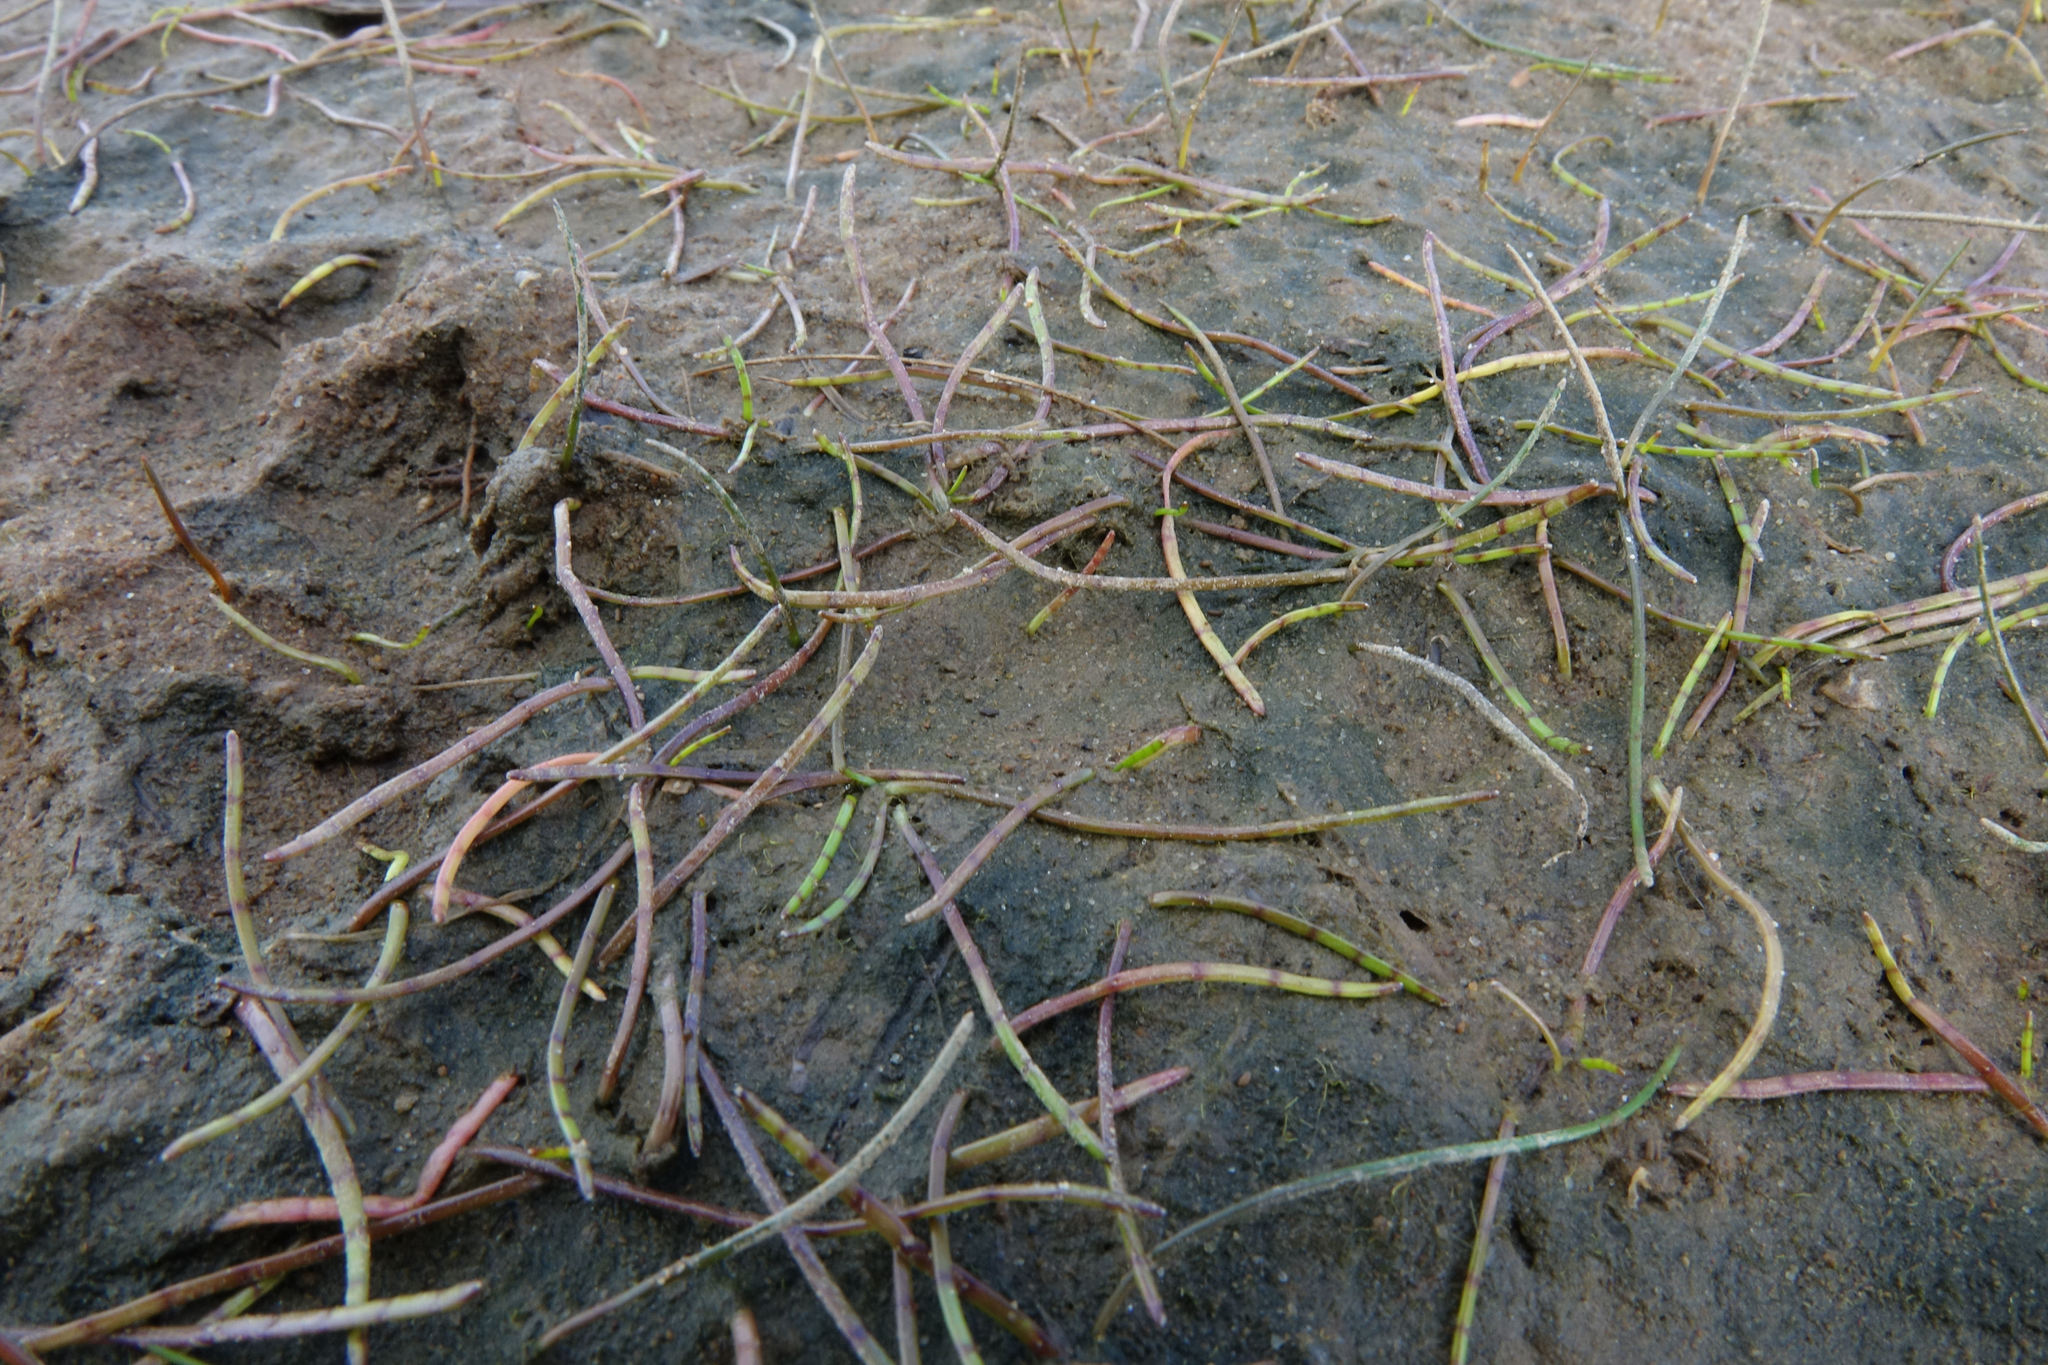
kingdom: Plantae
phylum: Tracheophyta
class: Magnoliopsida
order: Apiales
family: Apiaceae
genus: Lilaeopsis
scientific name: Lilaeopsis novae-zelandiae
